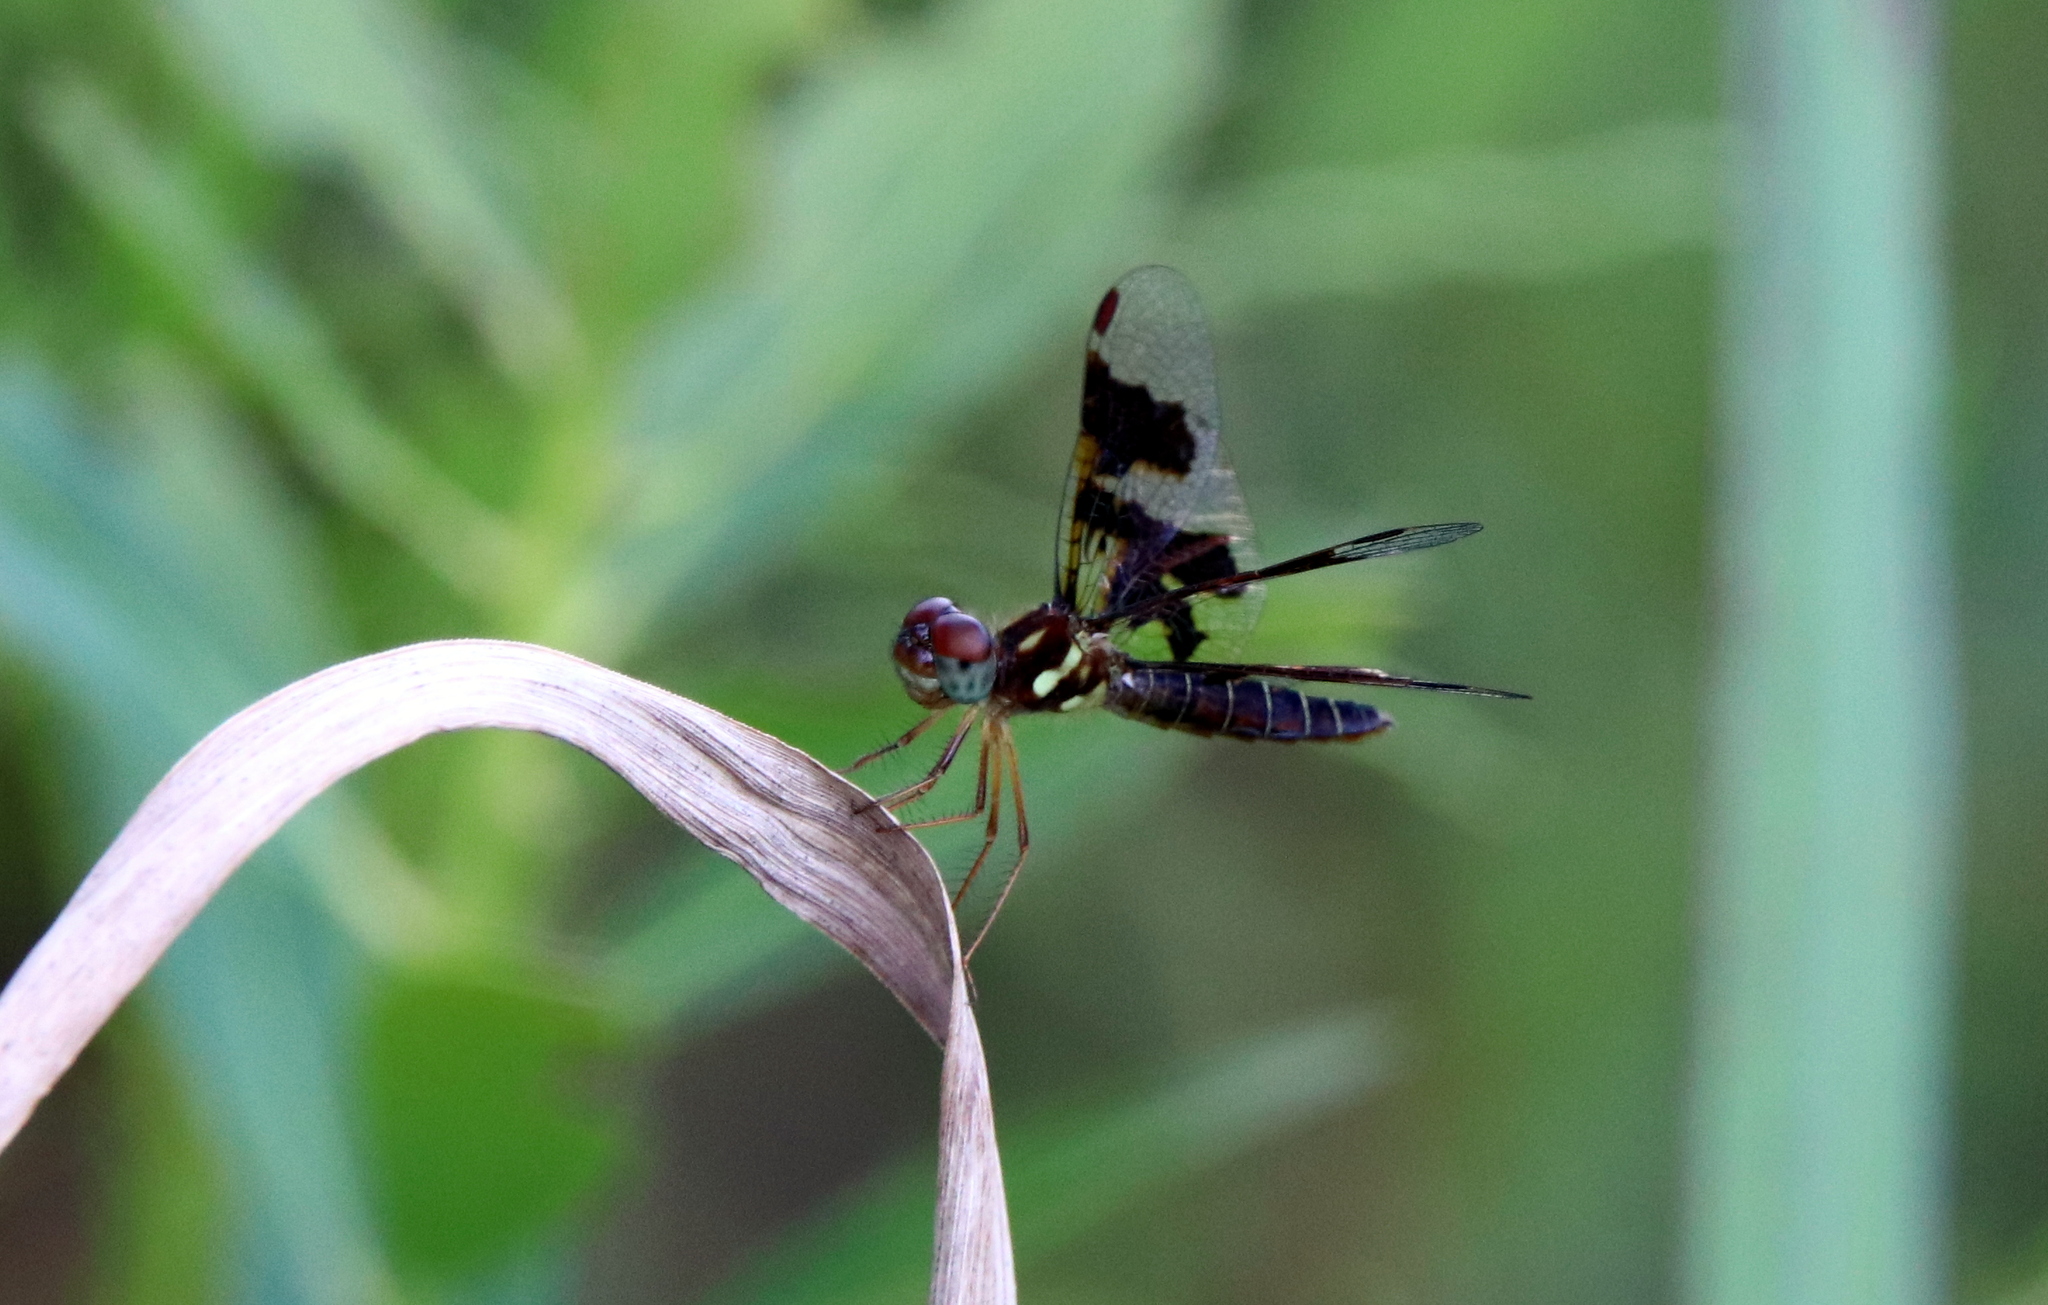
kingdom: Animalia
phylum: Arthropoda
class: Insecta
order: Odonata
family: Libellulidae
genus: Perithemis
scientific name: Perithemis tenera
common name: Eastern amberwing
